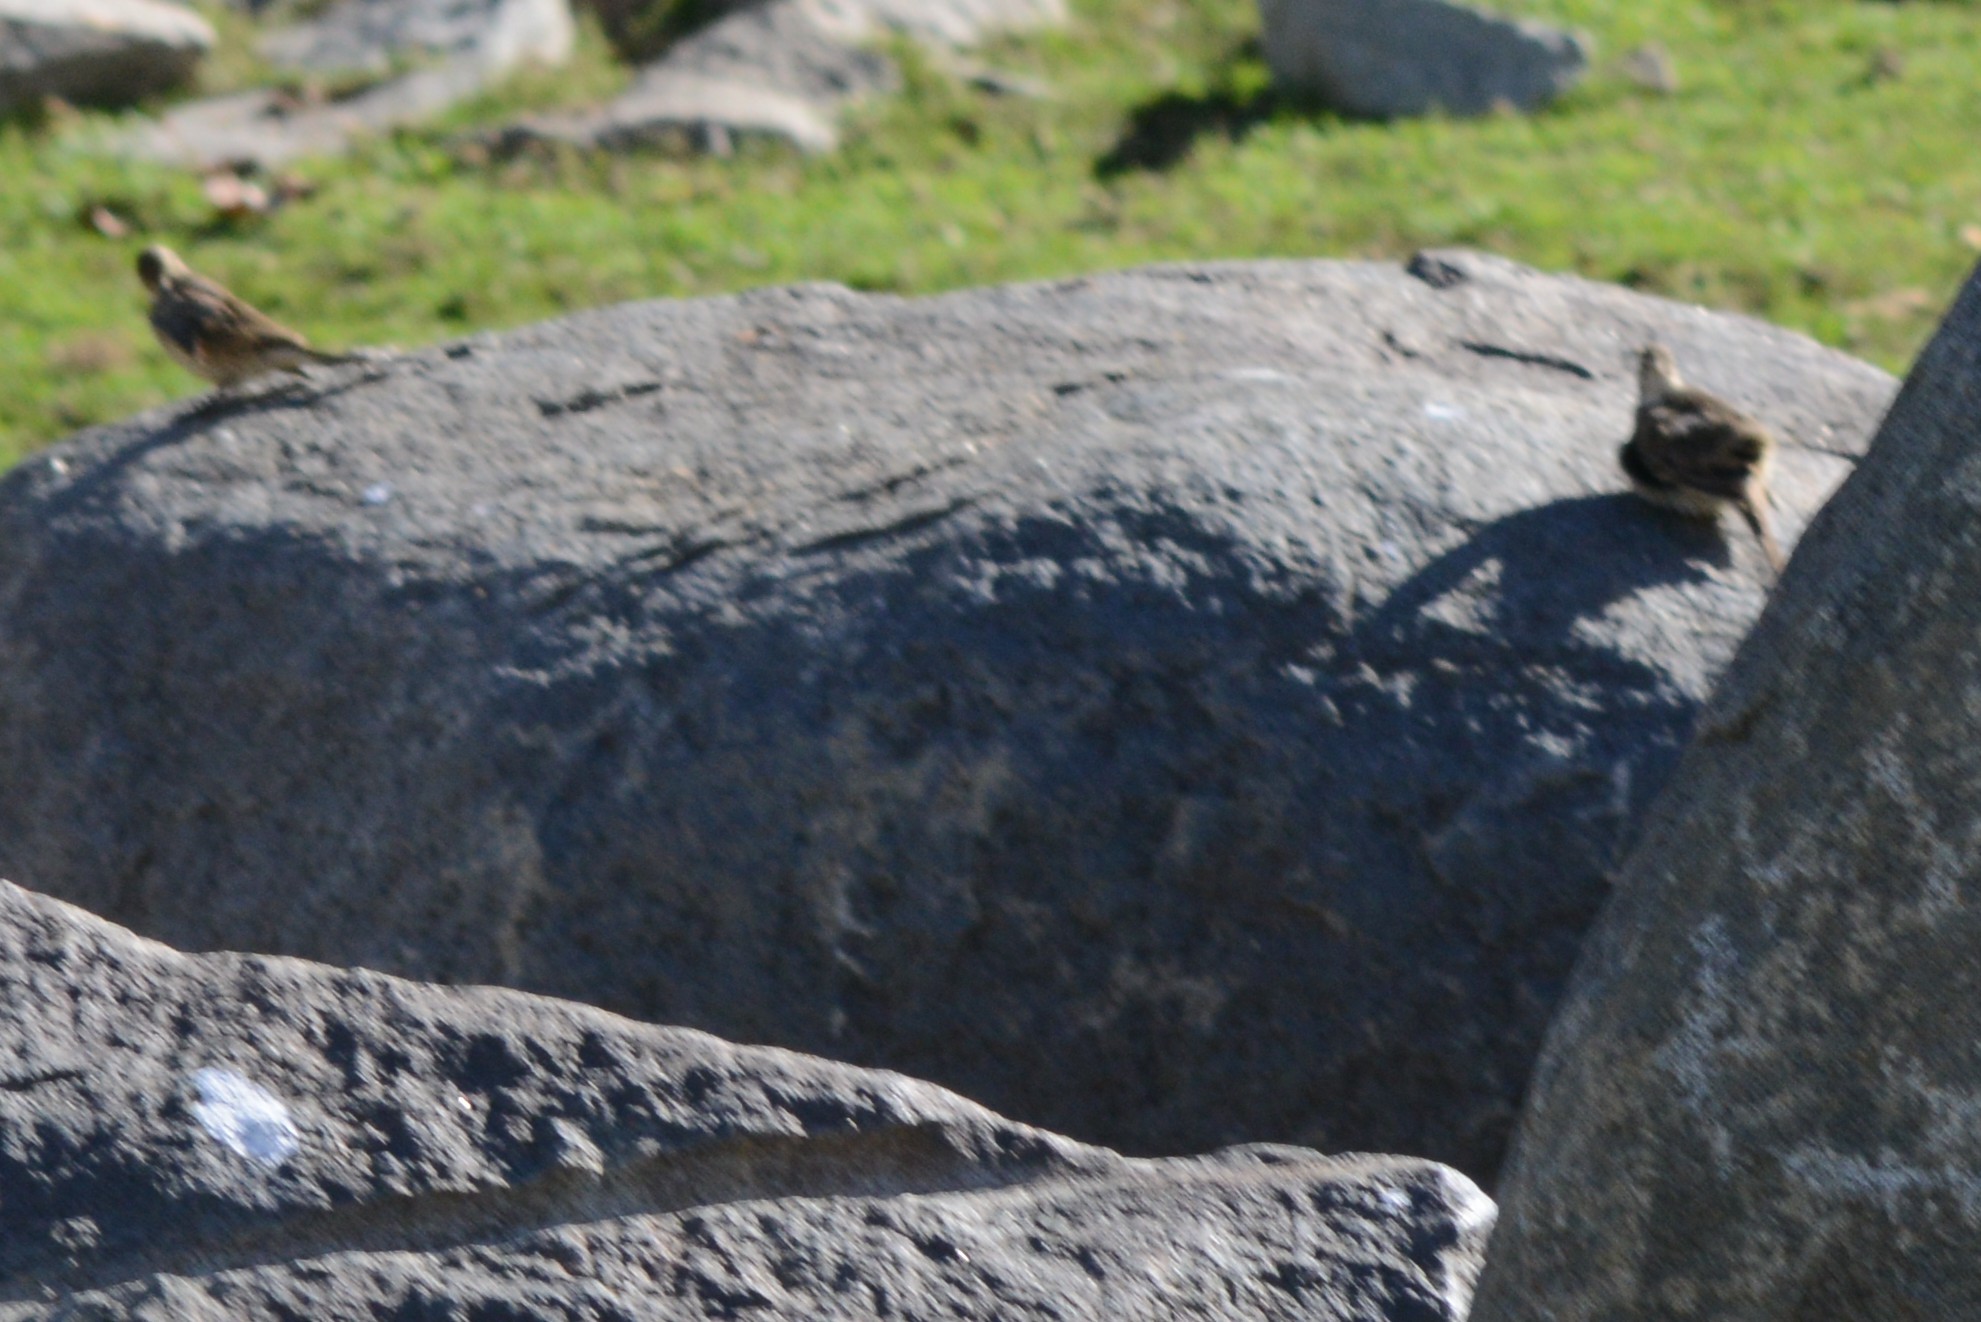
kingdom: Animalia
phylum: Chordata
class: Aves
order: Passeriformes
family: Motacillidae
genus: Anthus
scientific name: Anthus rubescens
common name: Buff-bellied pipit
